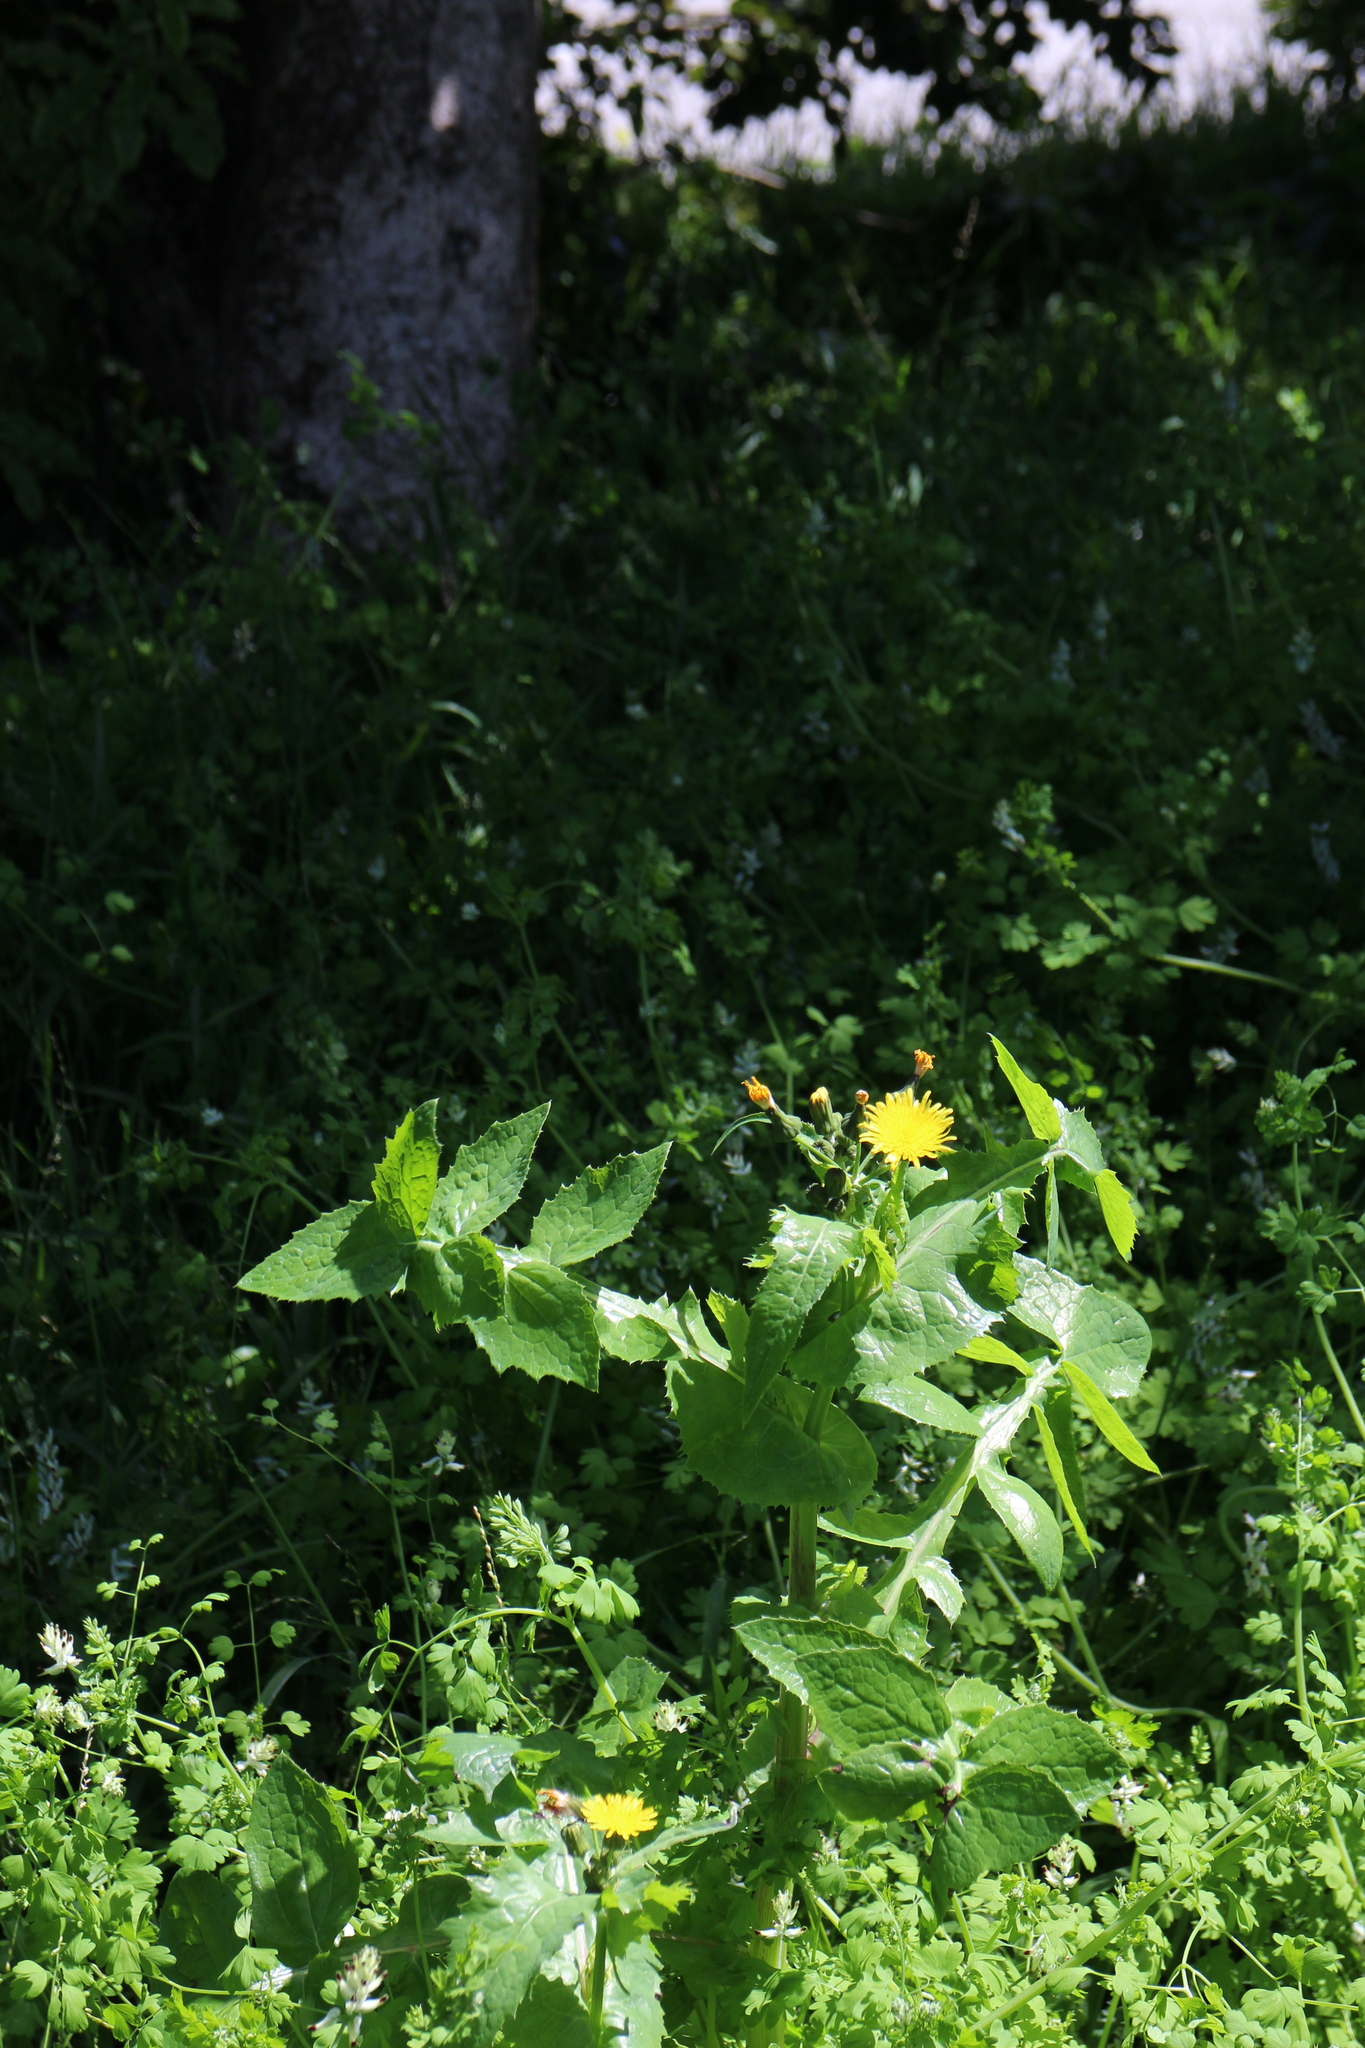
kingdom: Plantae
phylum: Tracheophyta
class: Magnoliopsida
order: Asterales
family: Asteraceae
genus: Sonchus
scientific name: Sonchus oleraceus
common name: Common sowthistle
